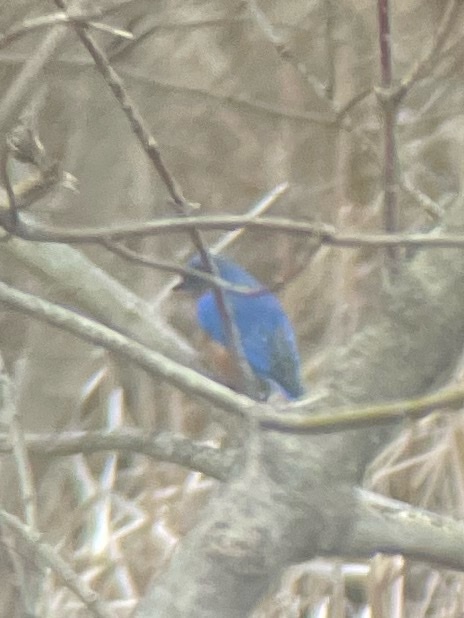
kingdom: Animalia
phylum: Chordata
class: Aves
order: Passeriformes
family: Turdidae
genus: Sialia
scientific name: Sialia sialis
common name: Eastern bluebird
